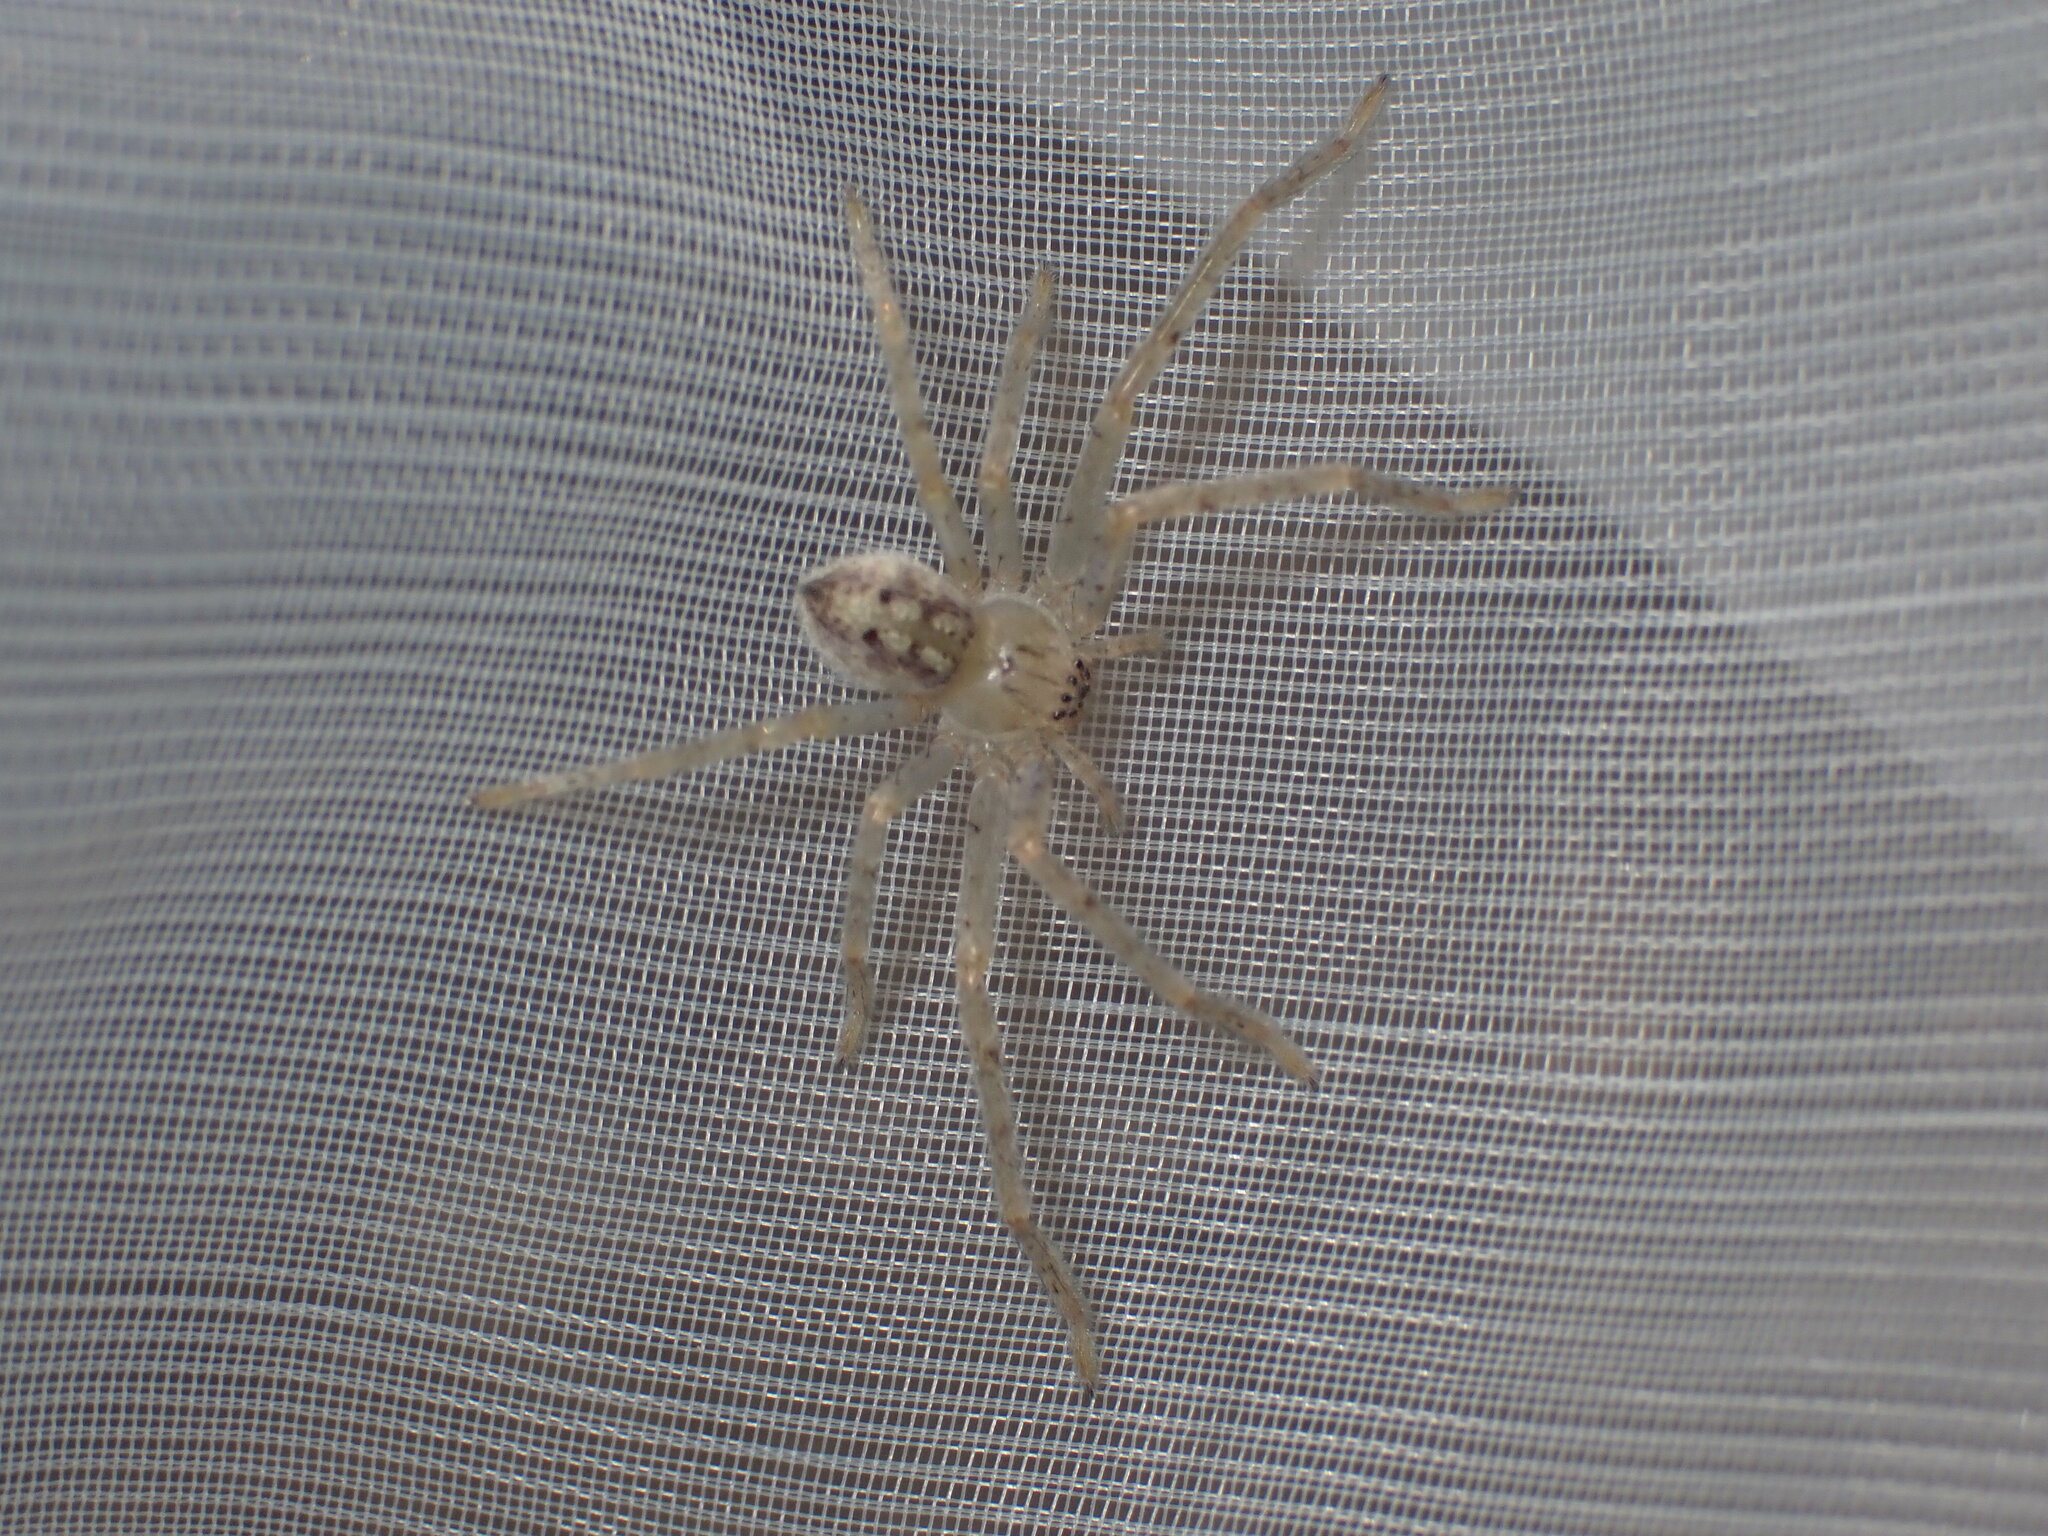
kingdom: Animalia
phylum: Arthropoda
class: Arachnida
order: Araneae
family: Sparassidae
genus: Olios
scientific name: Olios argelasius
